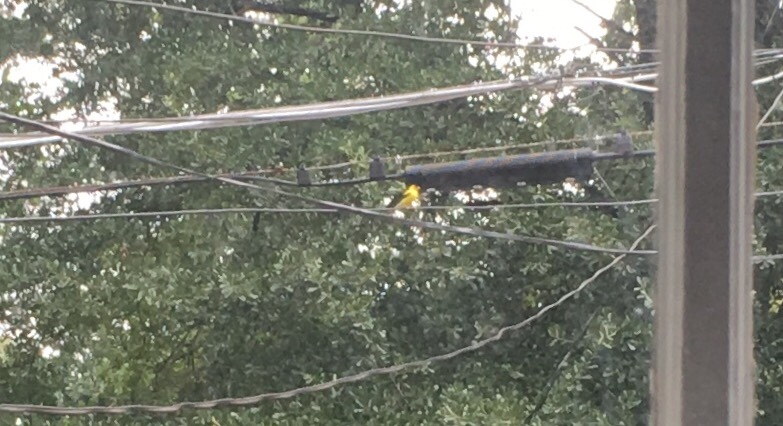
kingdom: Animalia
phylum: Chordata
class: Aves
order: Passeriformes
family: Fringillidae
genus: Spinus
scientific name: Spinus tristis
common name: American goldfinch
